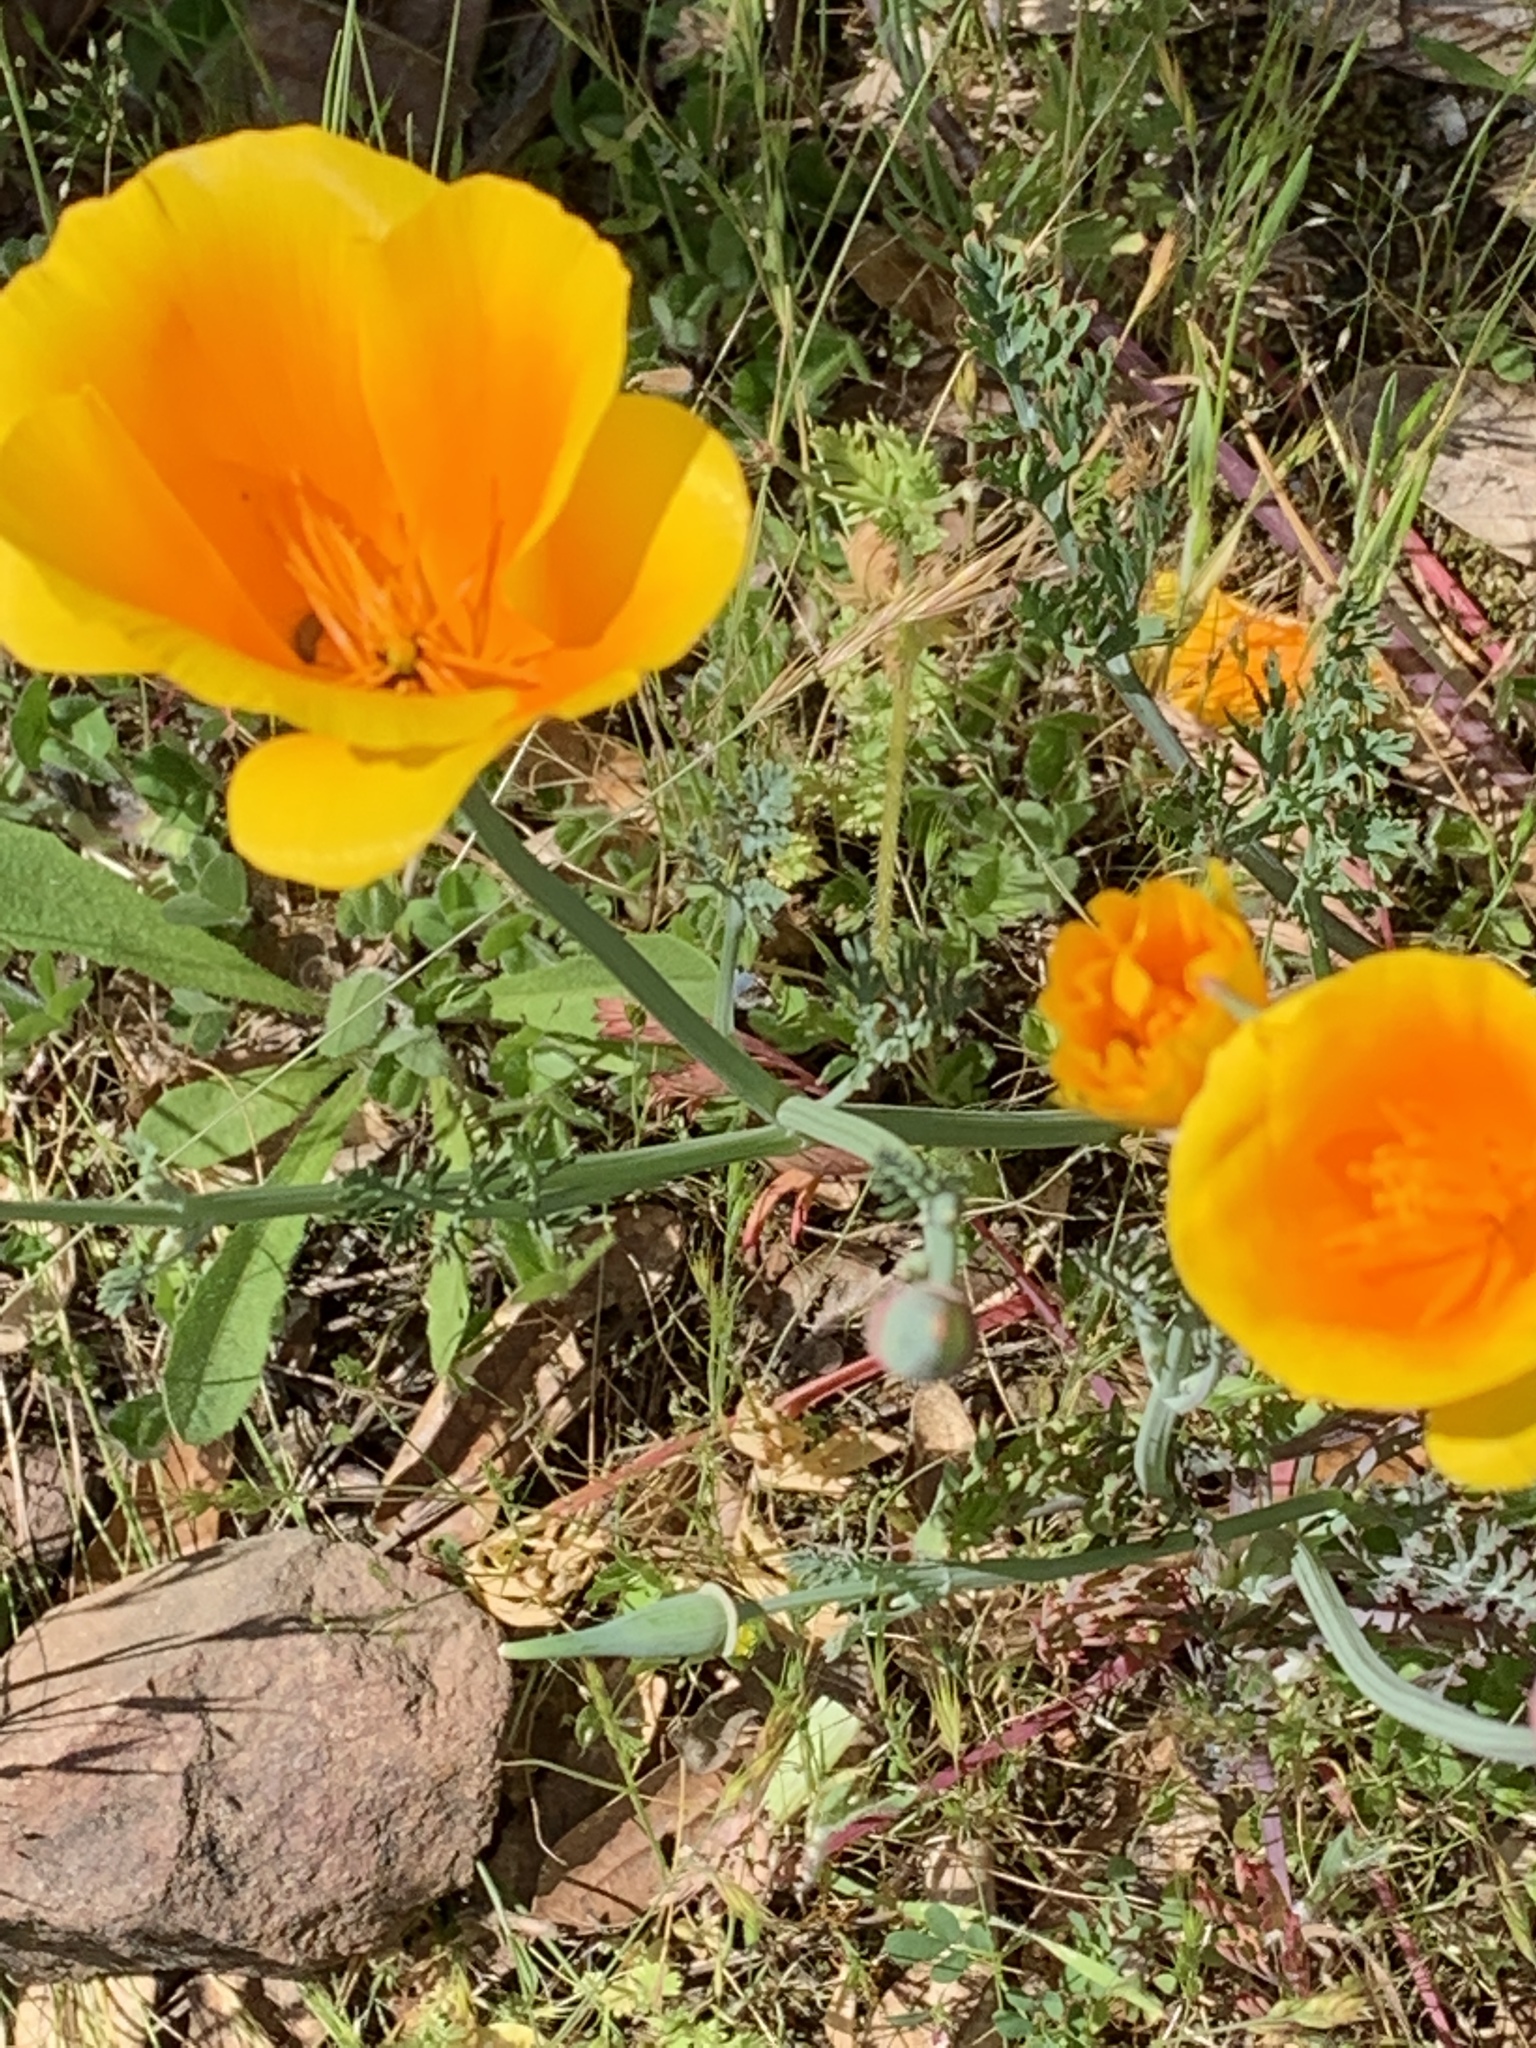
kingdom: Plantae
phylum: Tracheophyta
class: Magnoliopsida
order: Ranunculales
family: Papaveraceae
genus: Eschscholzia
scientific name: Eschscholzia californica
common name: California poppy
